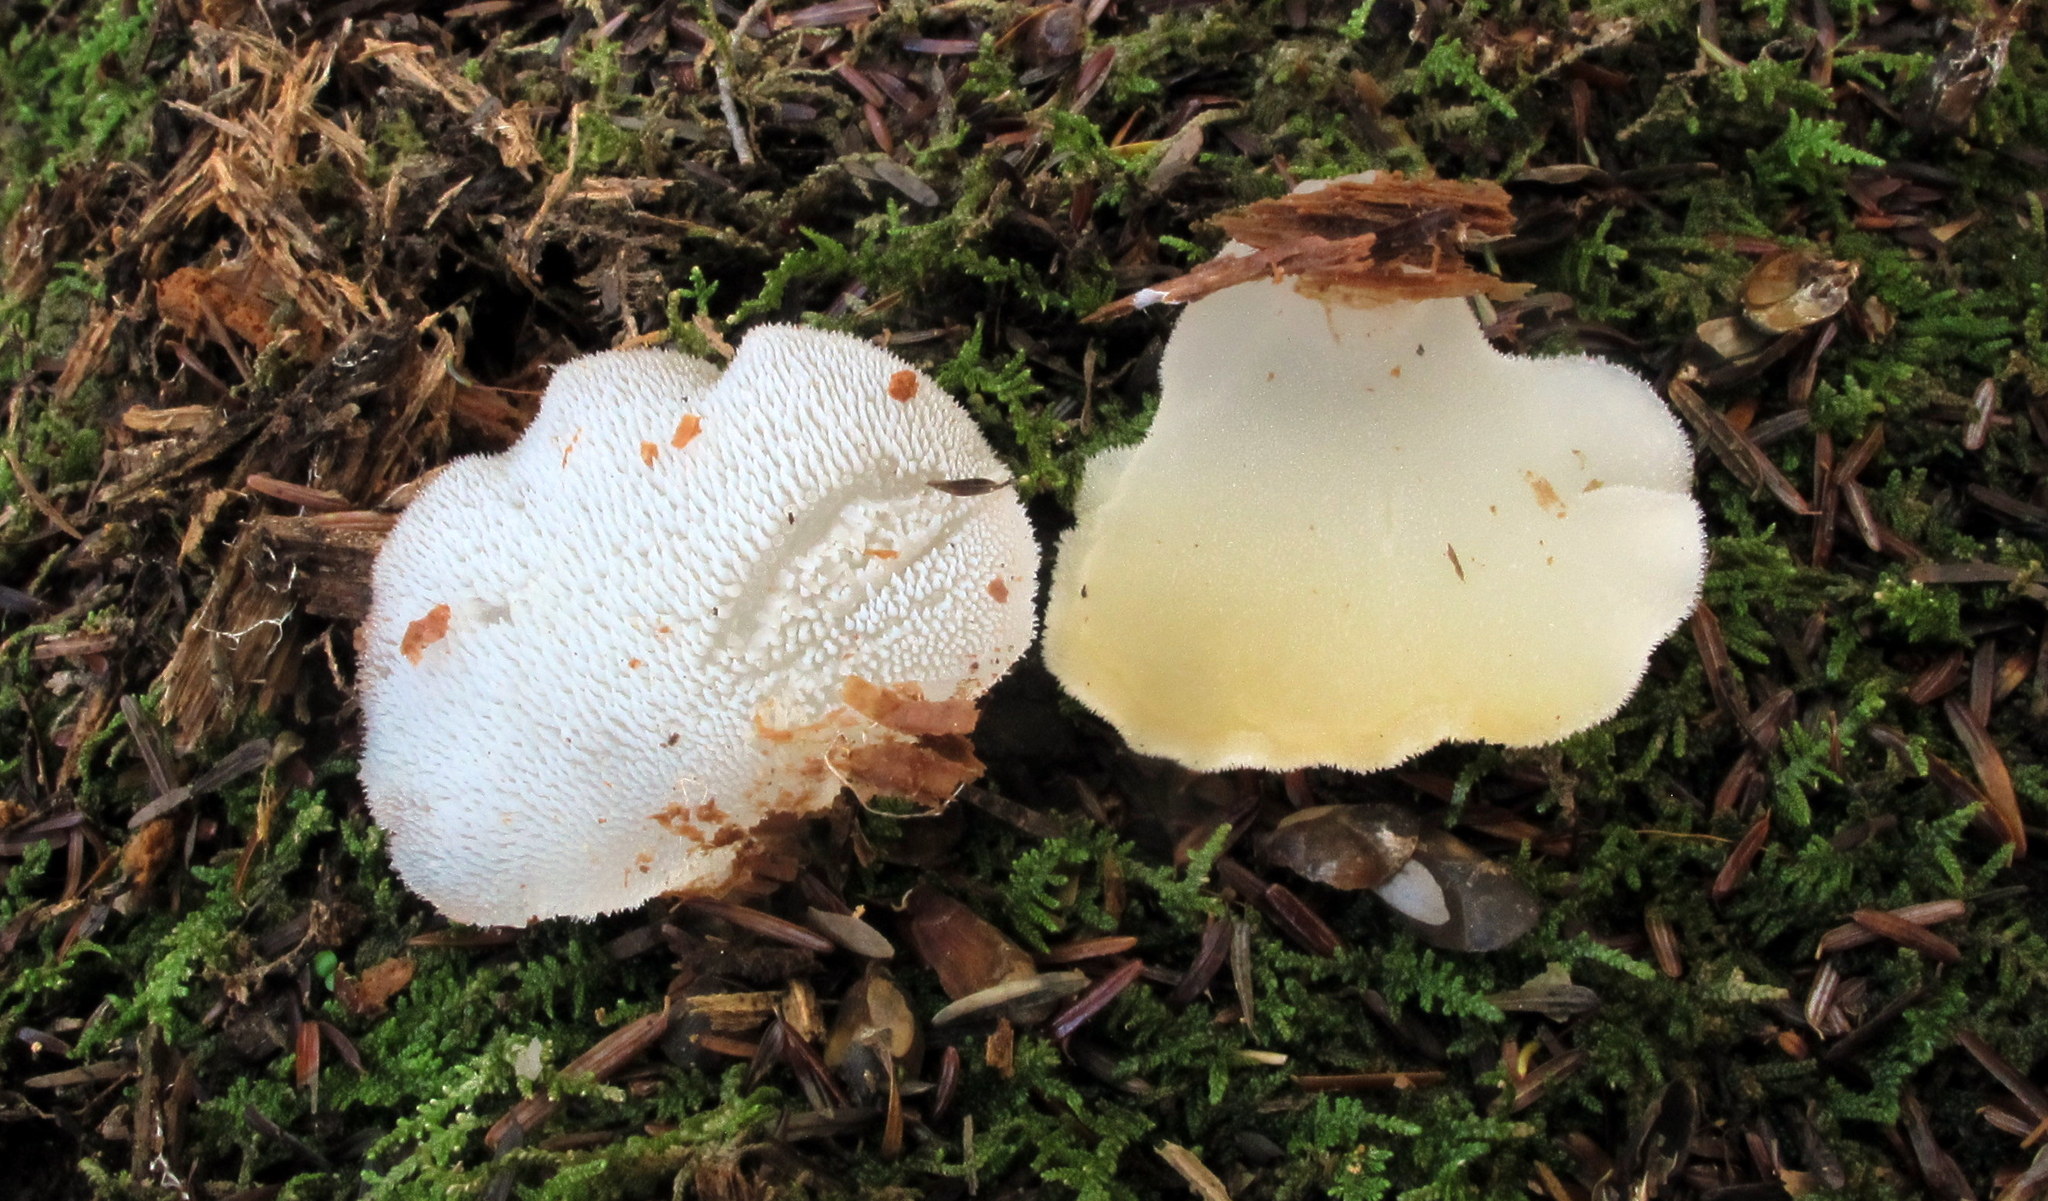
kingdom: Fungi
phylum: Basidiomycota
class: Agaricomycetes
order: Auriculariales
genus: Pseudohydnum
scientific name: Pseudohydnum gelatinosum
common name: Jelly tongue
